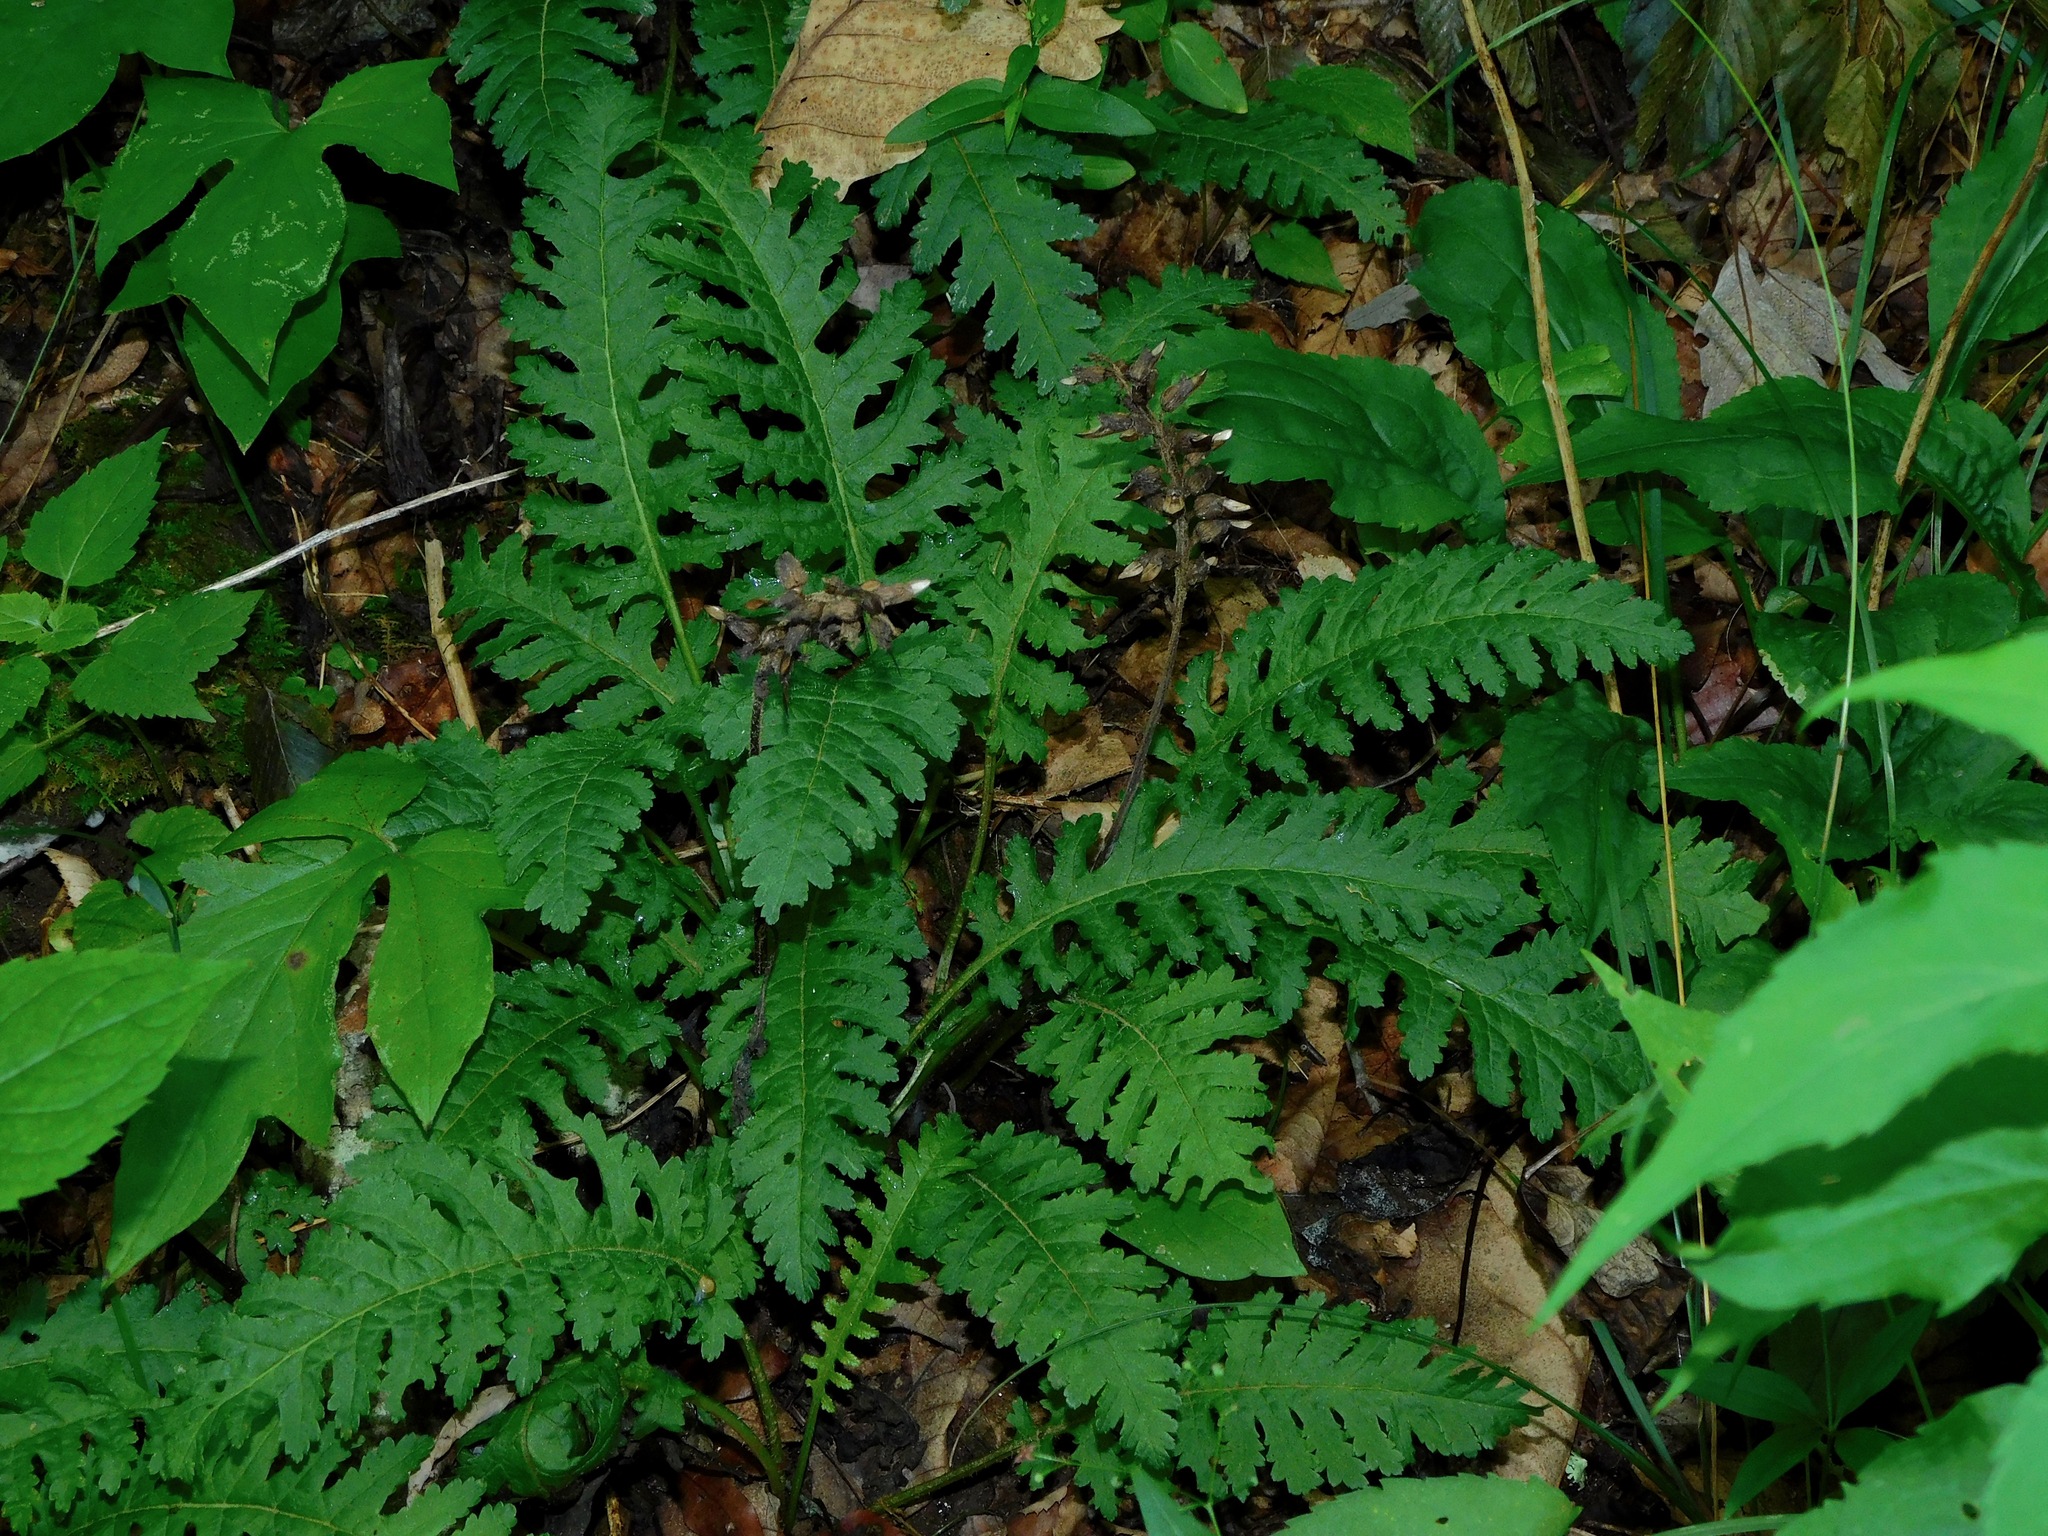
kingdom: Plantae
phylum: Tracheophyta
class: Magnoliopsida
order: Lamiales
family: Orobanchaceae
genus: Pedicularis
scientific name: Pedicularis canadensis
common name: Early lousewort
